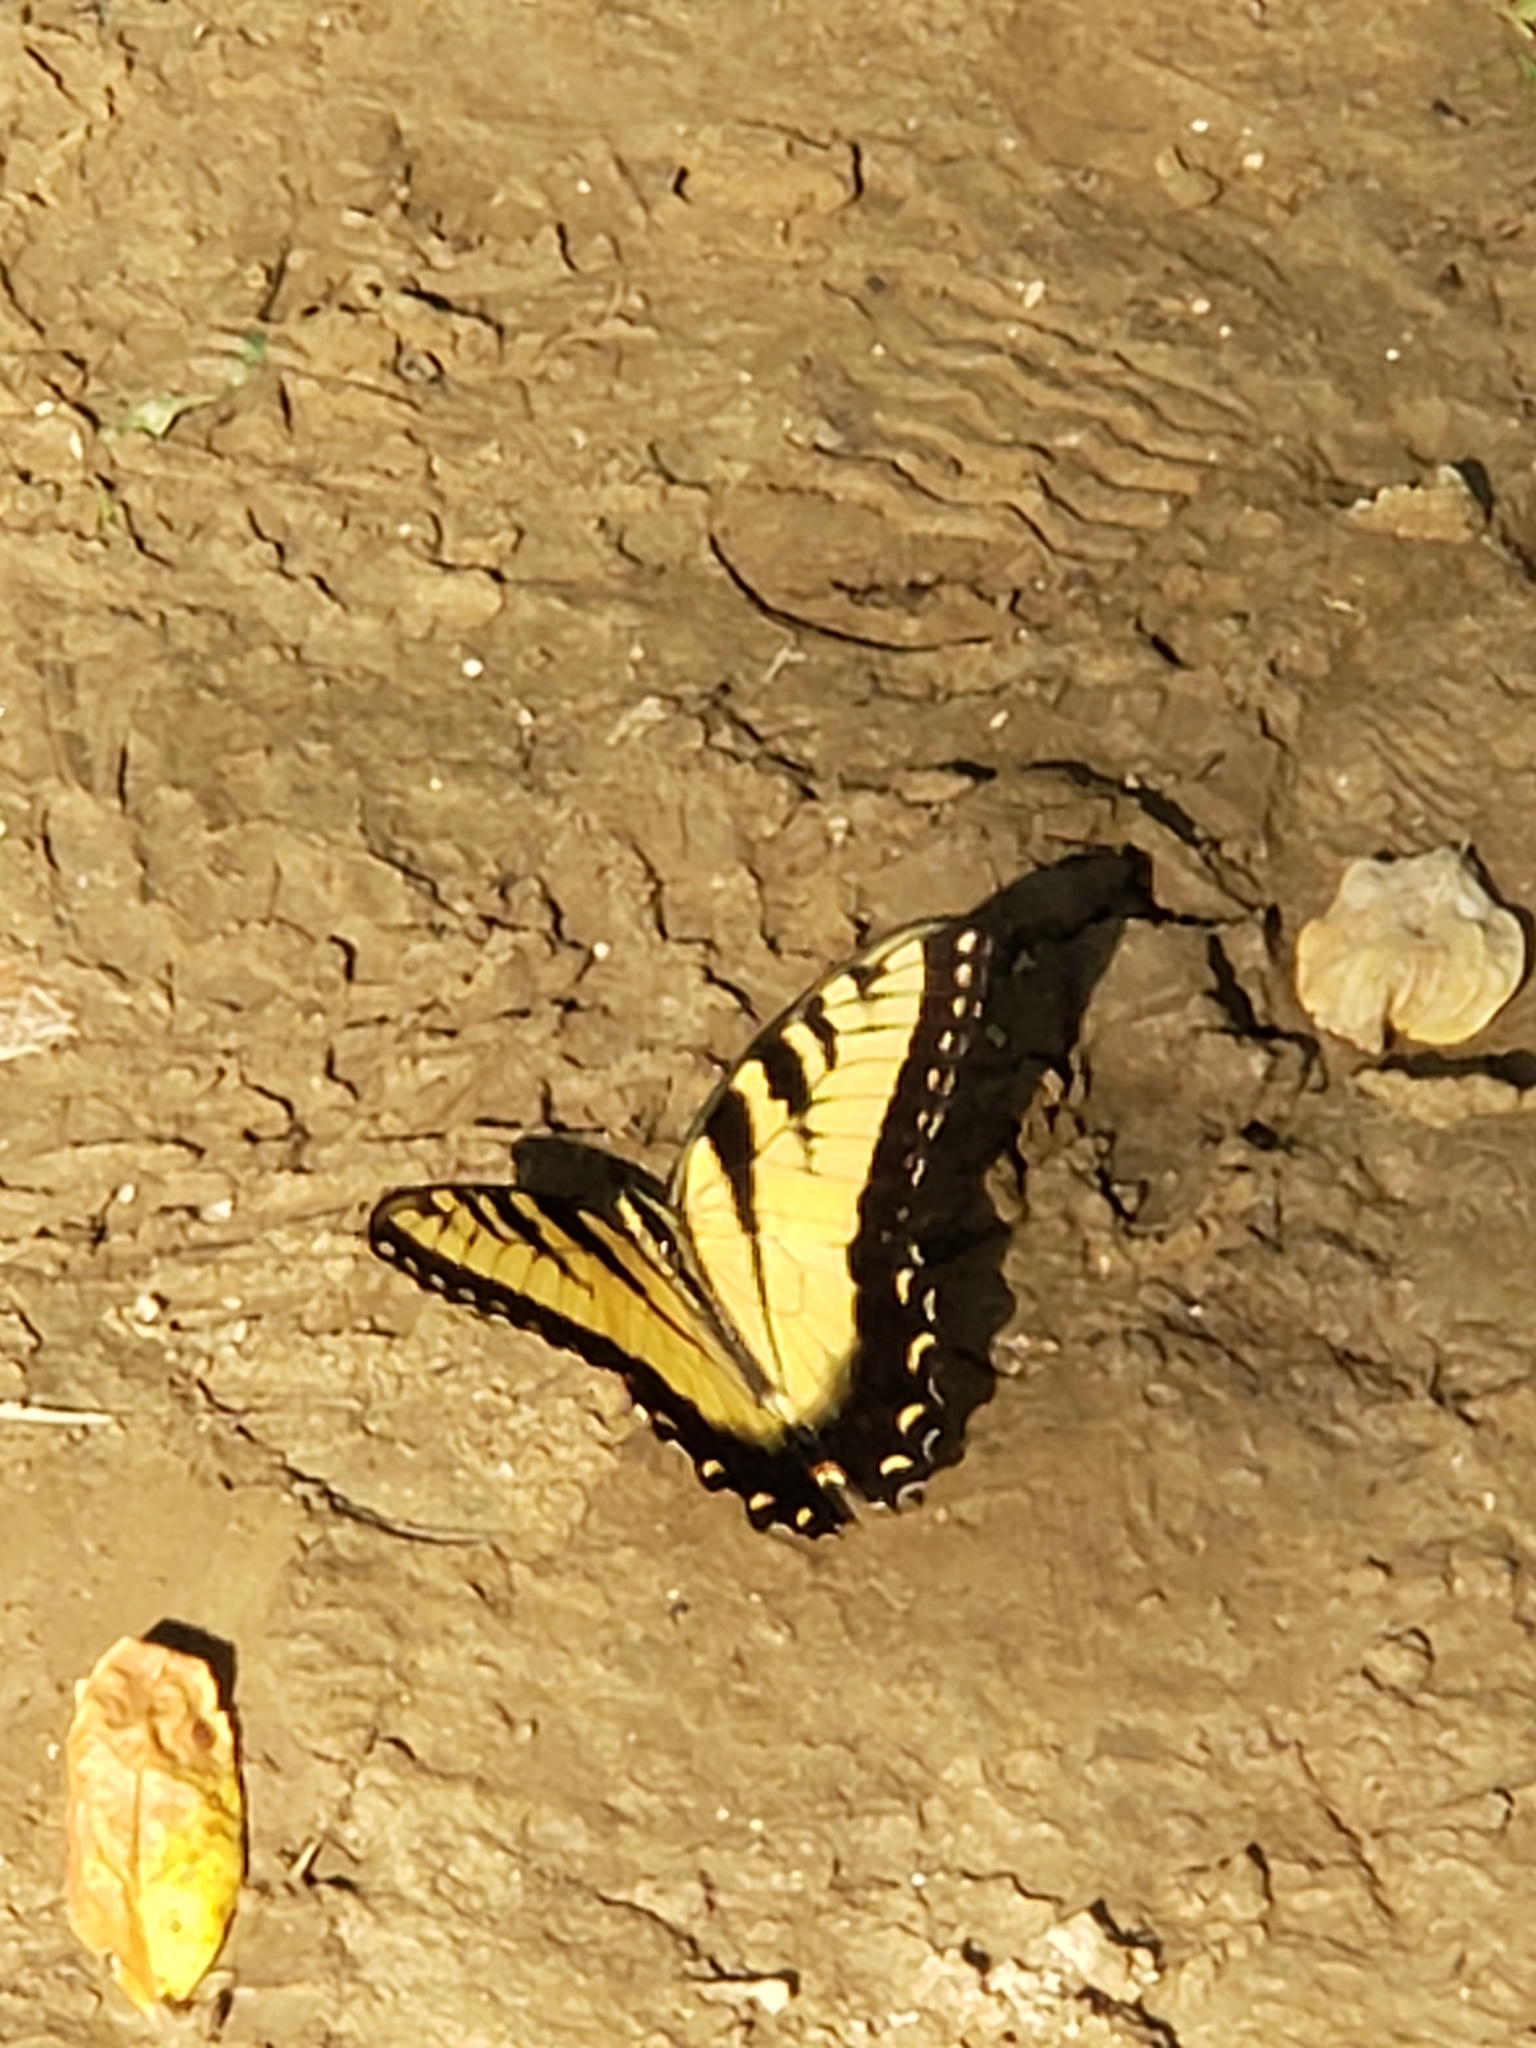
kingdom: Animalia
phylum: Arthropoda
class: Insecta
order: Lepidoptera
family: Papilionidae
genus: Papilio
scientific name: Papilio glaucus
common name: Tiger swallowtail
